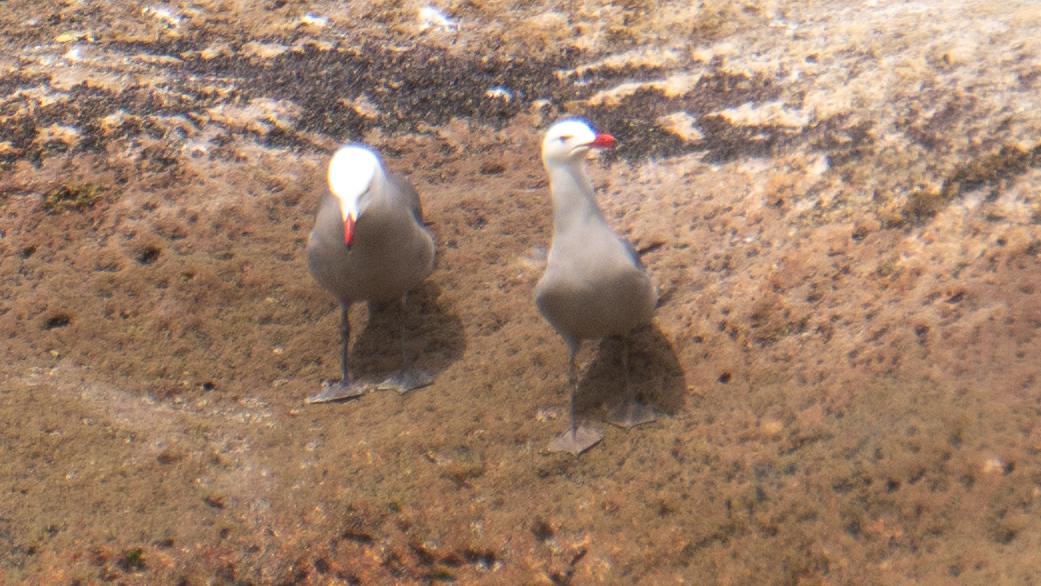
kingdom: Animalia
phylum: Chordata
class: Aves
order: Charadriiformes
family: Laridae
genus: Larus
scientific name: Larus heermanni
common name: Heermann's gull
